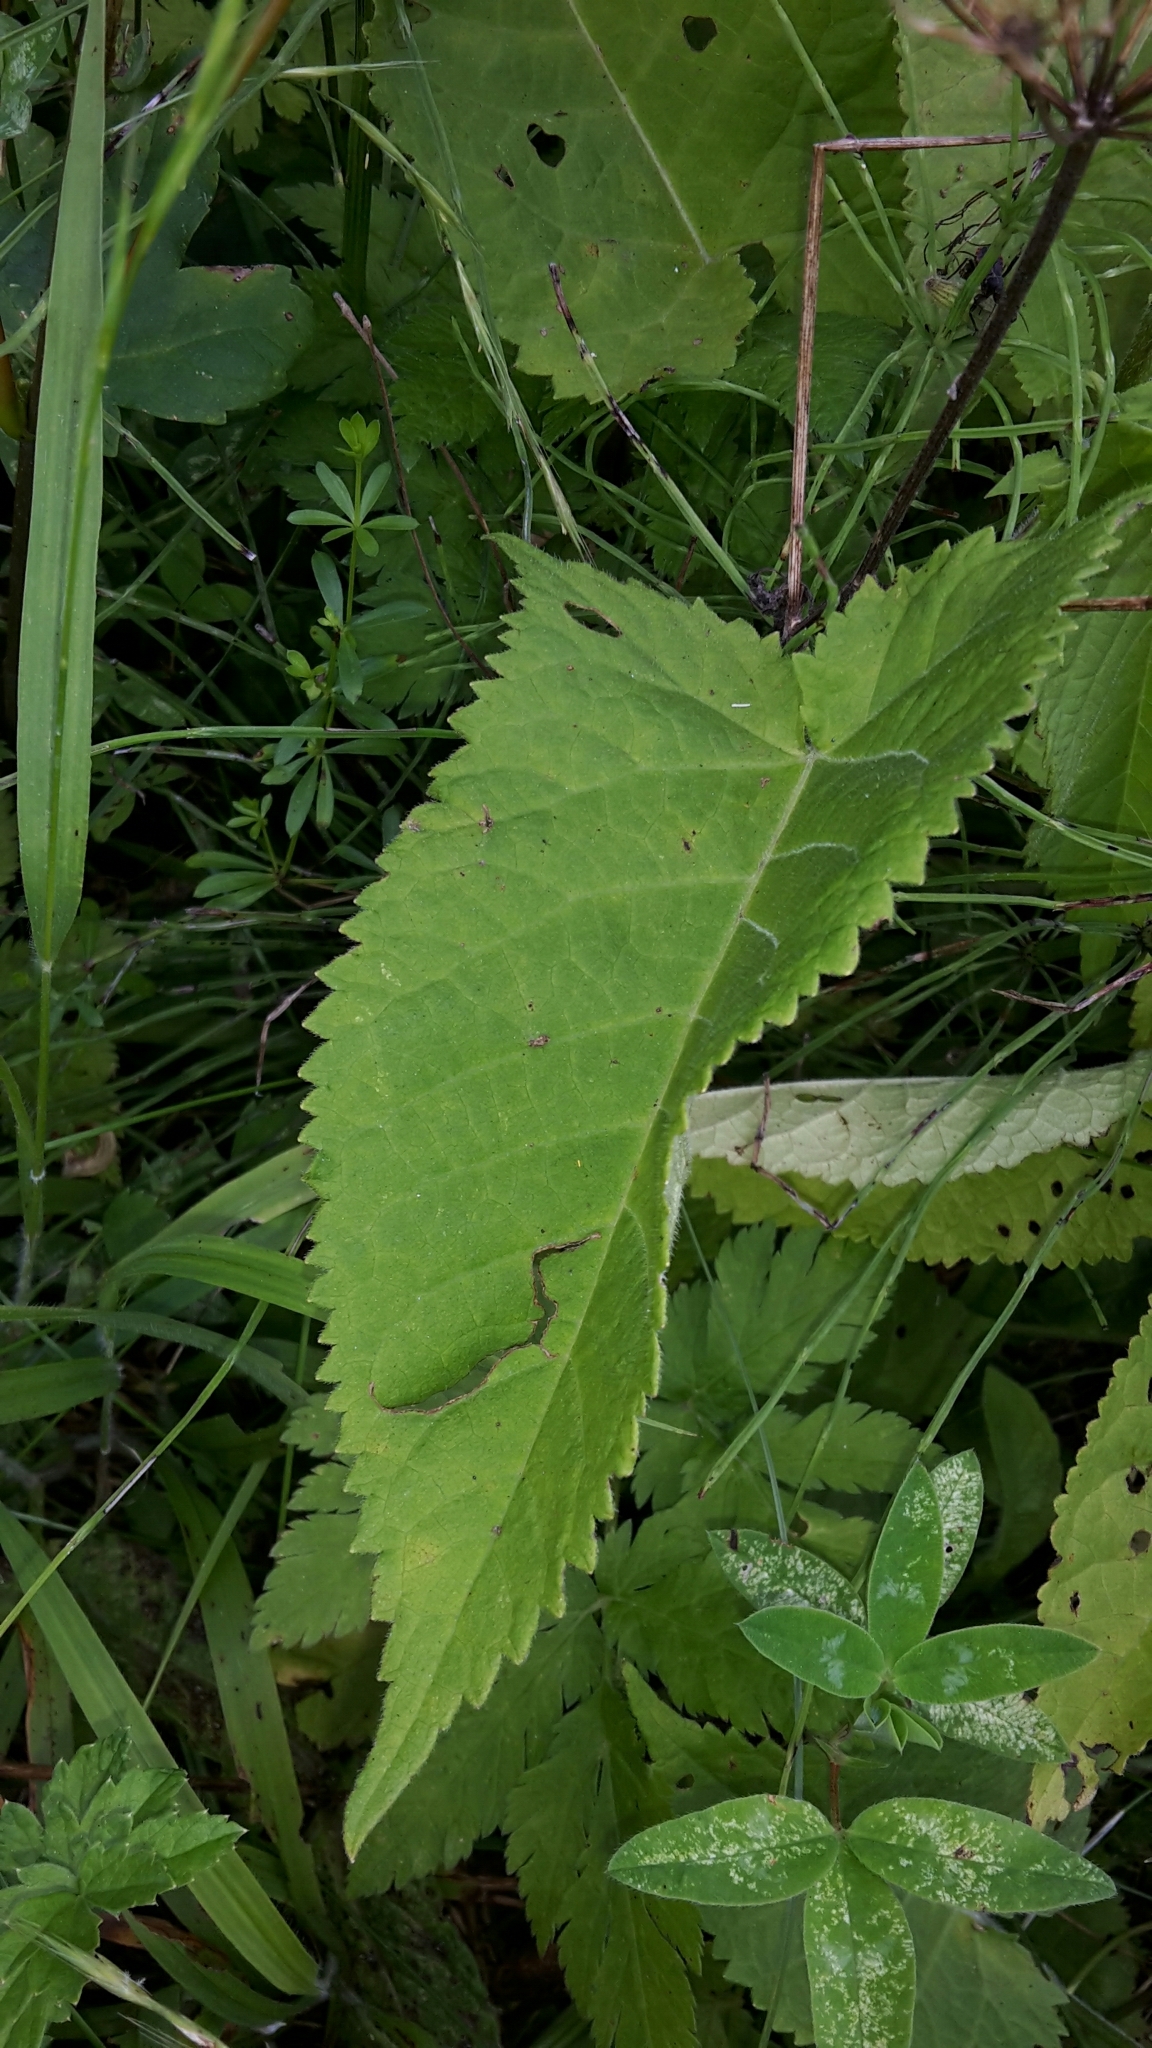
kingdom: Plantae
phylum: Tracheophyta
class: Magnoliopsida
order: Lamiales
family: Lamiaceae
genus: Salvia
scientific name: Salvia glutinosa
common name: Sticky clary
